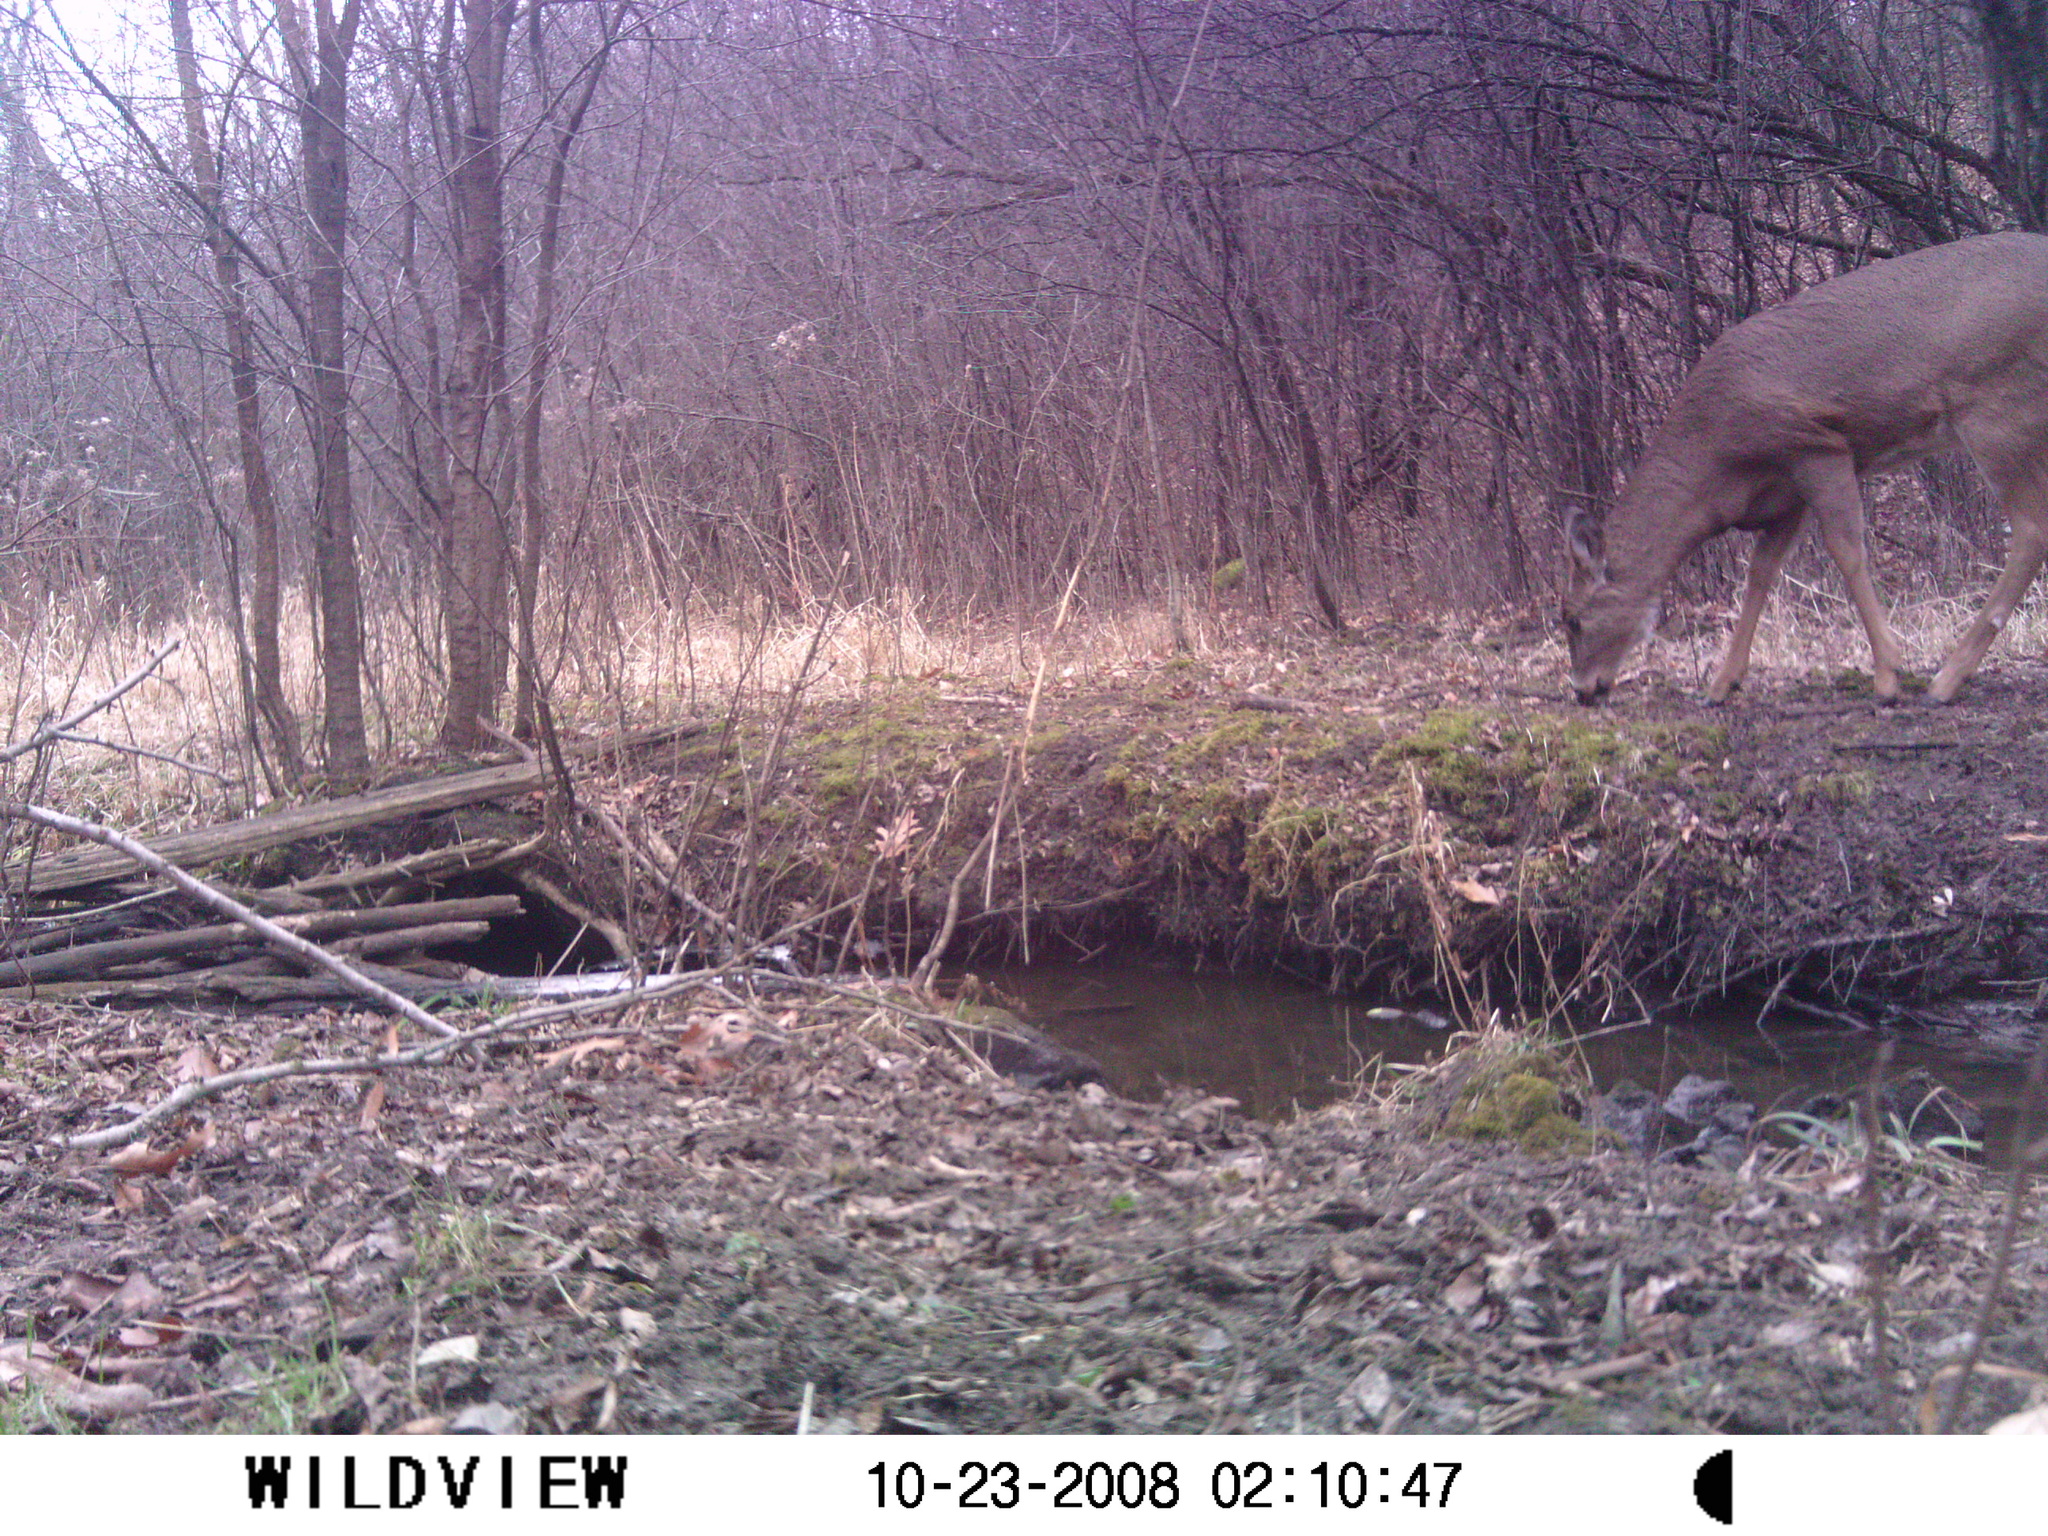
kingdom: Animalia
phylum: Chordata
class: Mammalia
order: Artiodactyla
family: Cervidae
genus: Odocoileus
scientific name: Odocoileus virginianus
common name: White-tailed deer
